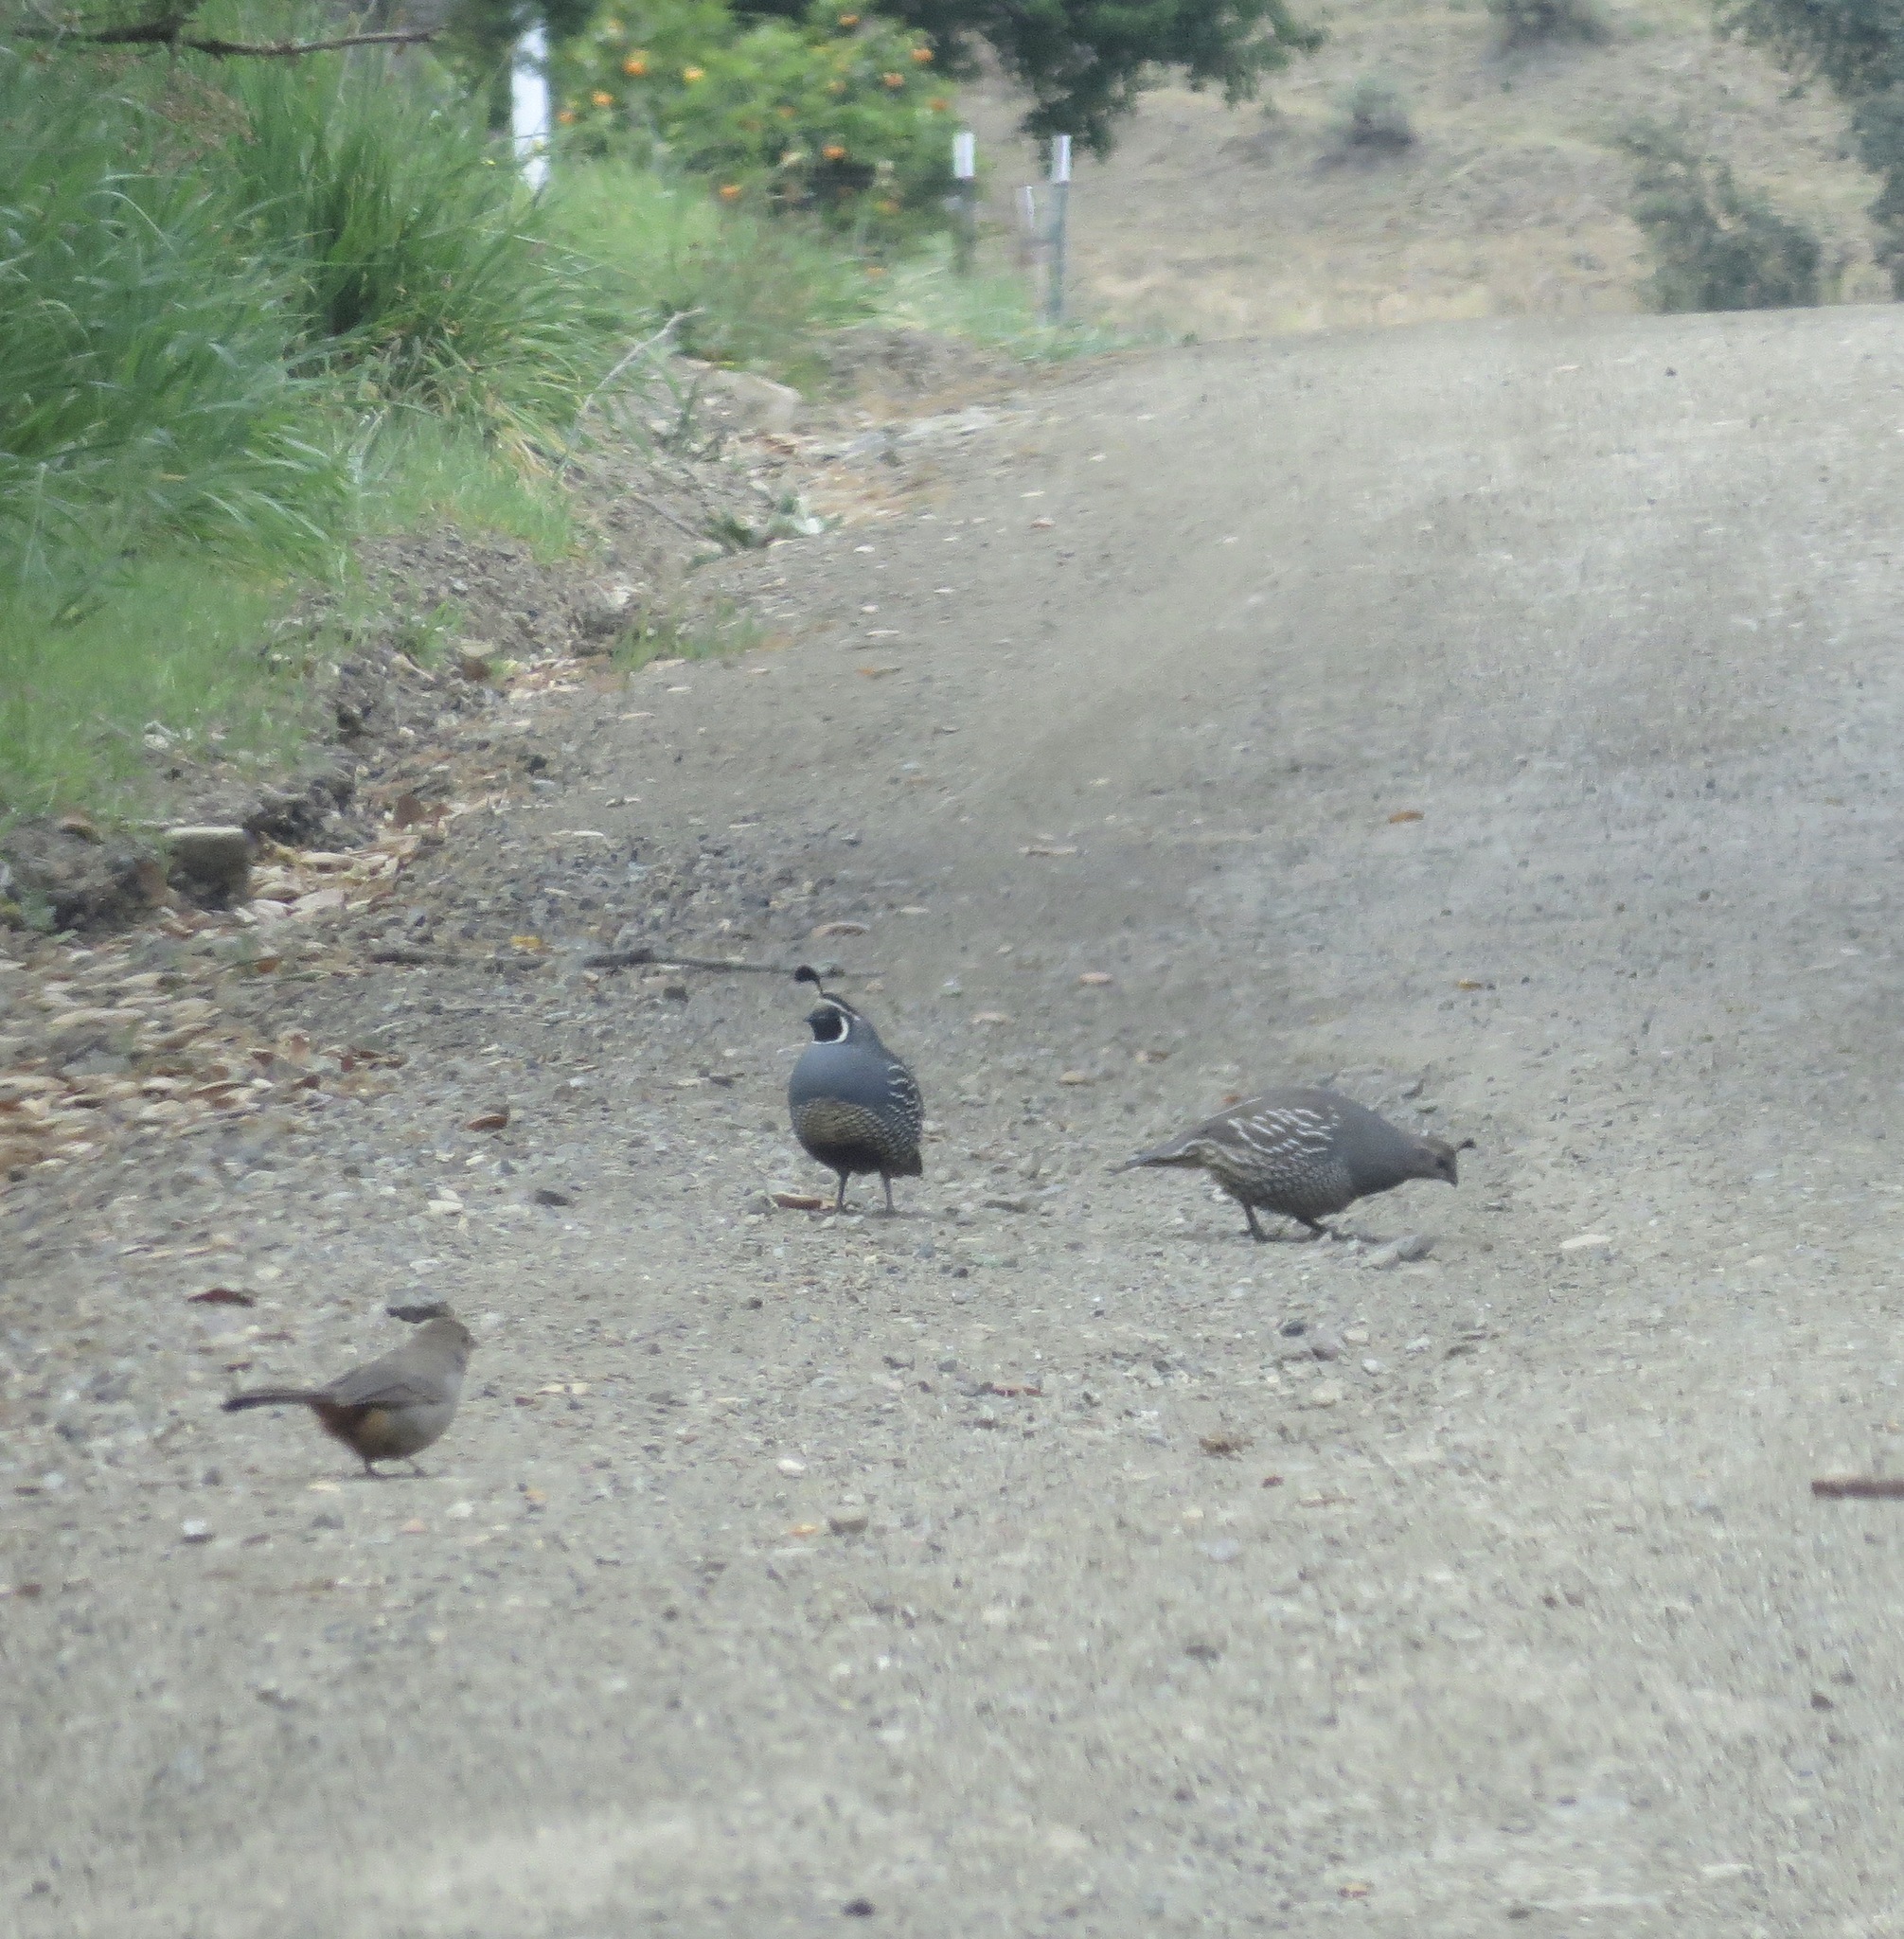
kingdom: Animalia
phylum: Chordata
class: Aves
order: Galliformes
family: Odontophoridae
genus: Callipepla
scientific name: Callipepla californica
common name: California quail
